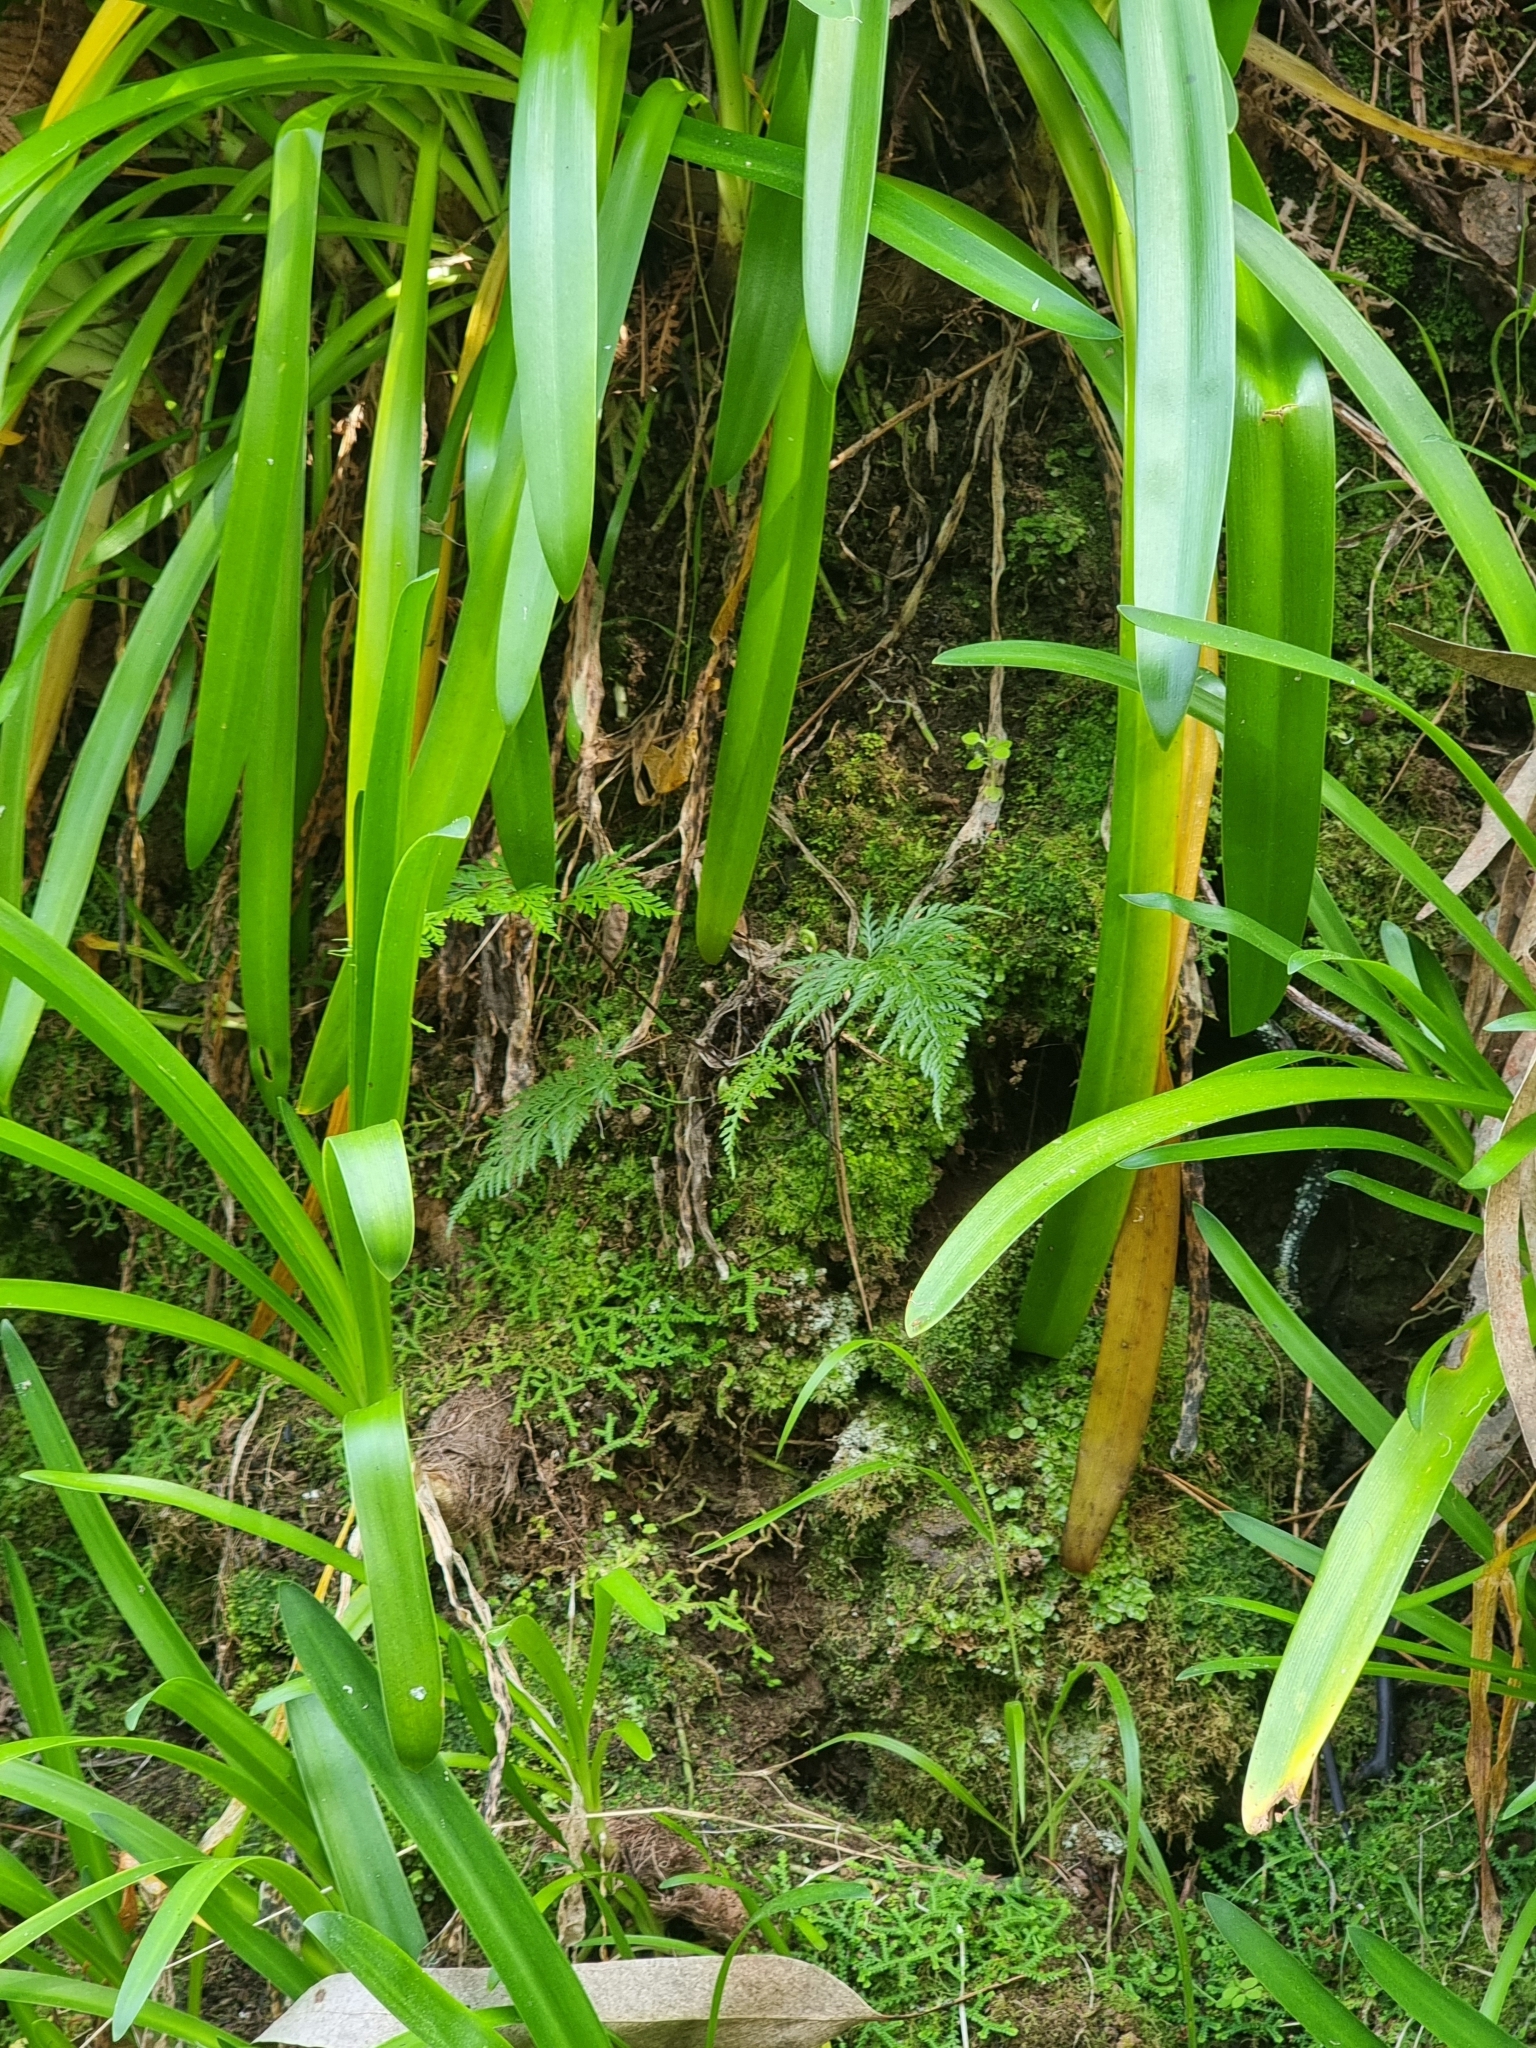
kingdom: Plantae
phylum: Tracheophyta
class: Polypodiopsida
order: Polypodiales
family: Aspleniaceae
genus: Asplenium
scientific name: Asplenium onopteris
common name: Irish spleenwort
